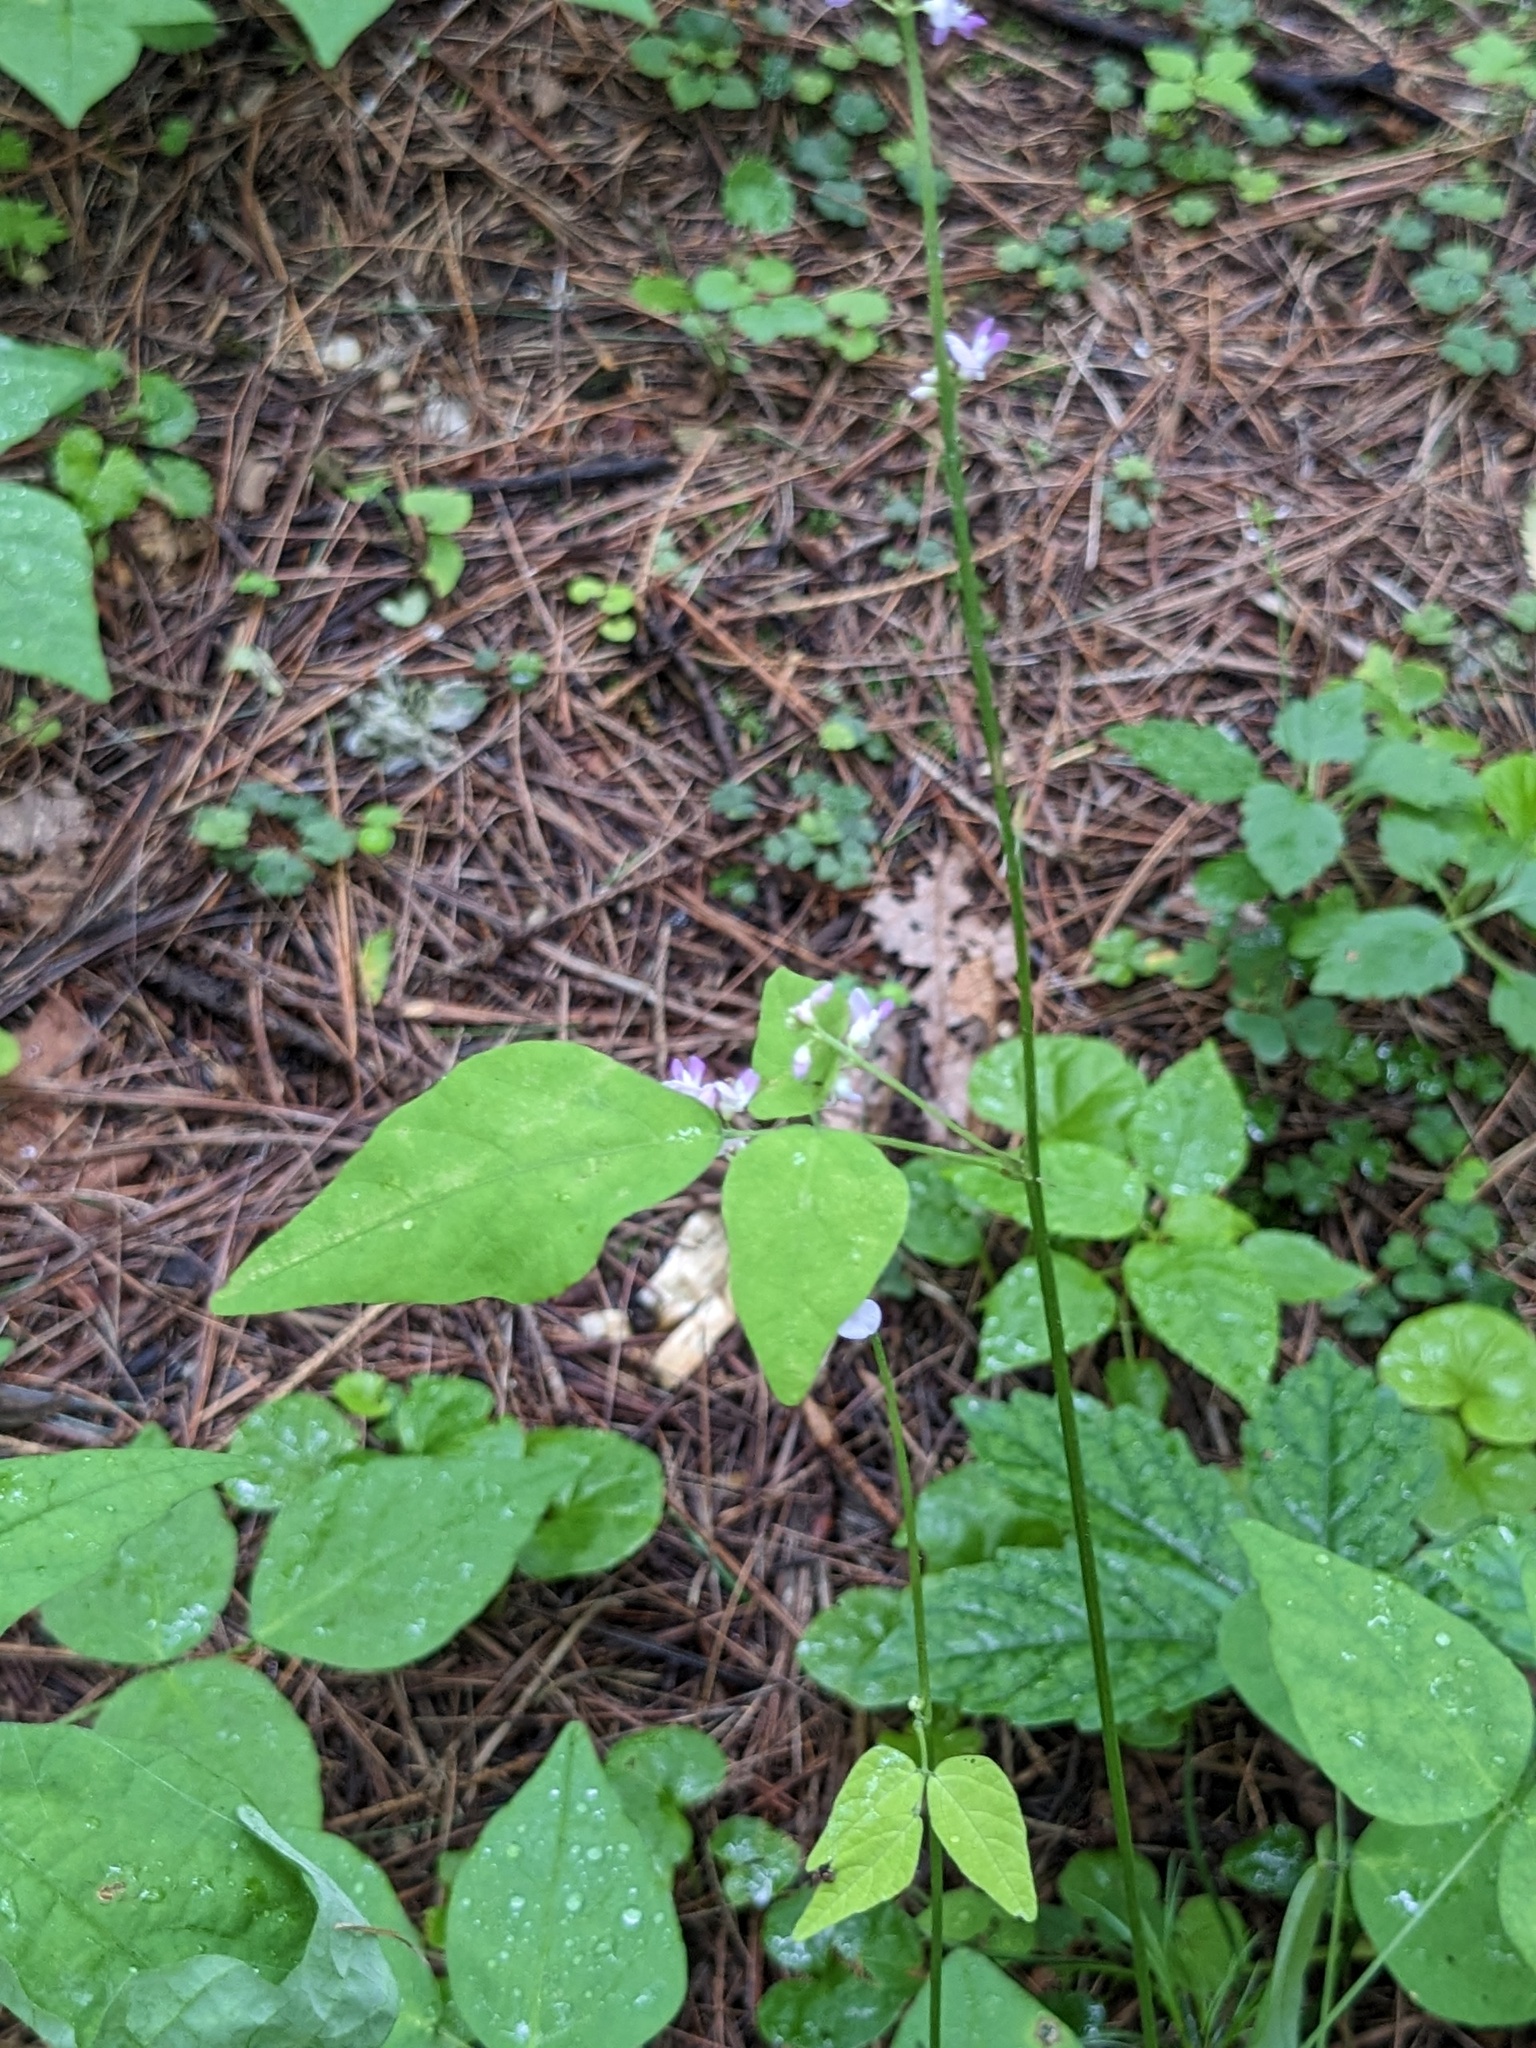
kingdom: Plantae
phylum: Tracheophyta
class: Magnoliopsida
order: Fabales
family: Fabaceae
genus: Hylodesmum
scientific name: Hylodesmum podocarpum
